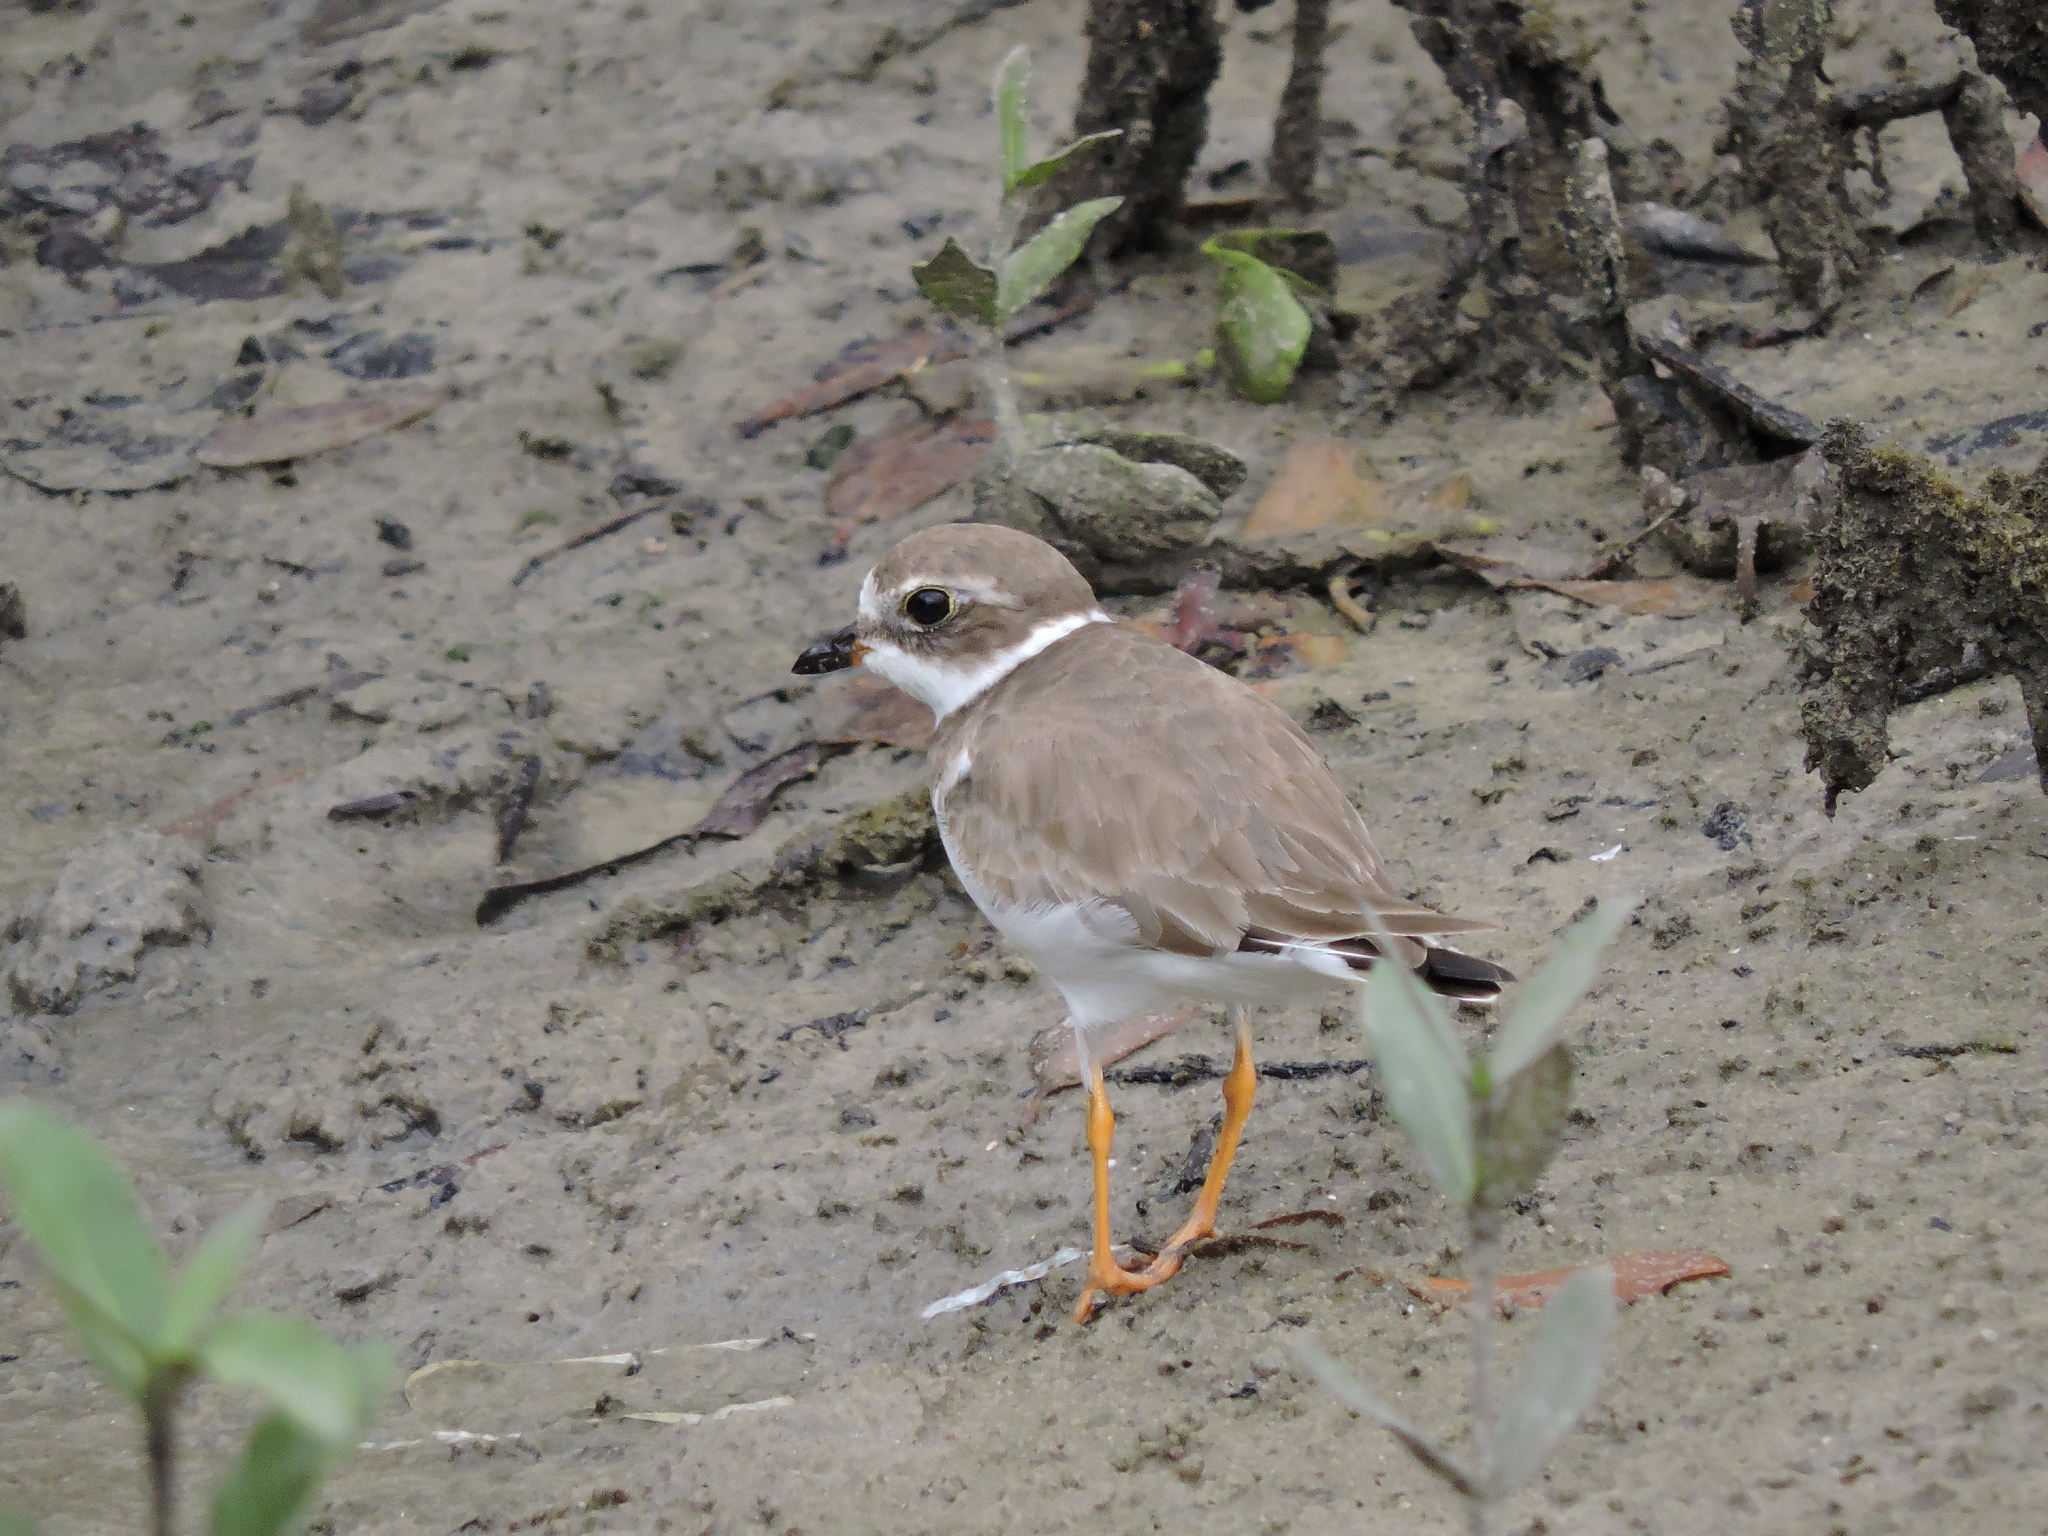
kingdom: Animalia
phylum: Chordata
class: Aves
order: Charadriiformes
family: Charadriidae
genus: Charadrius
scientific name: Charadrius semipalmatus
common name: Semipalmated plover
